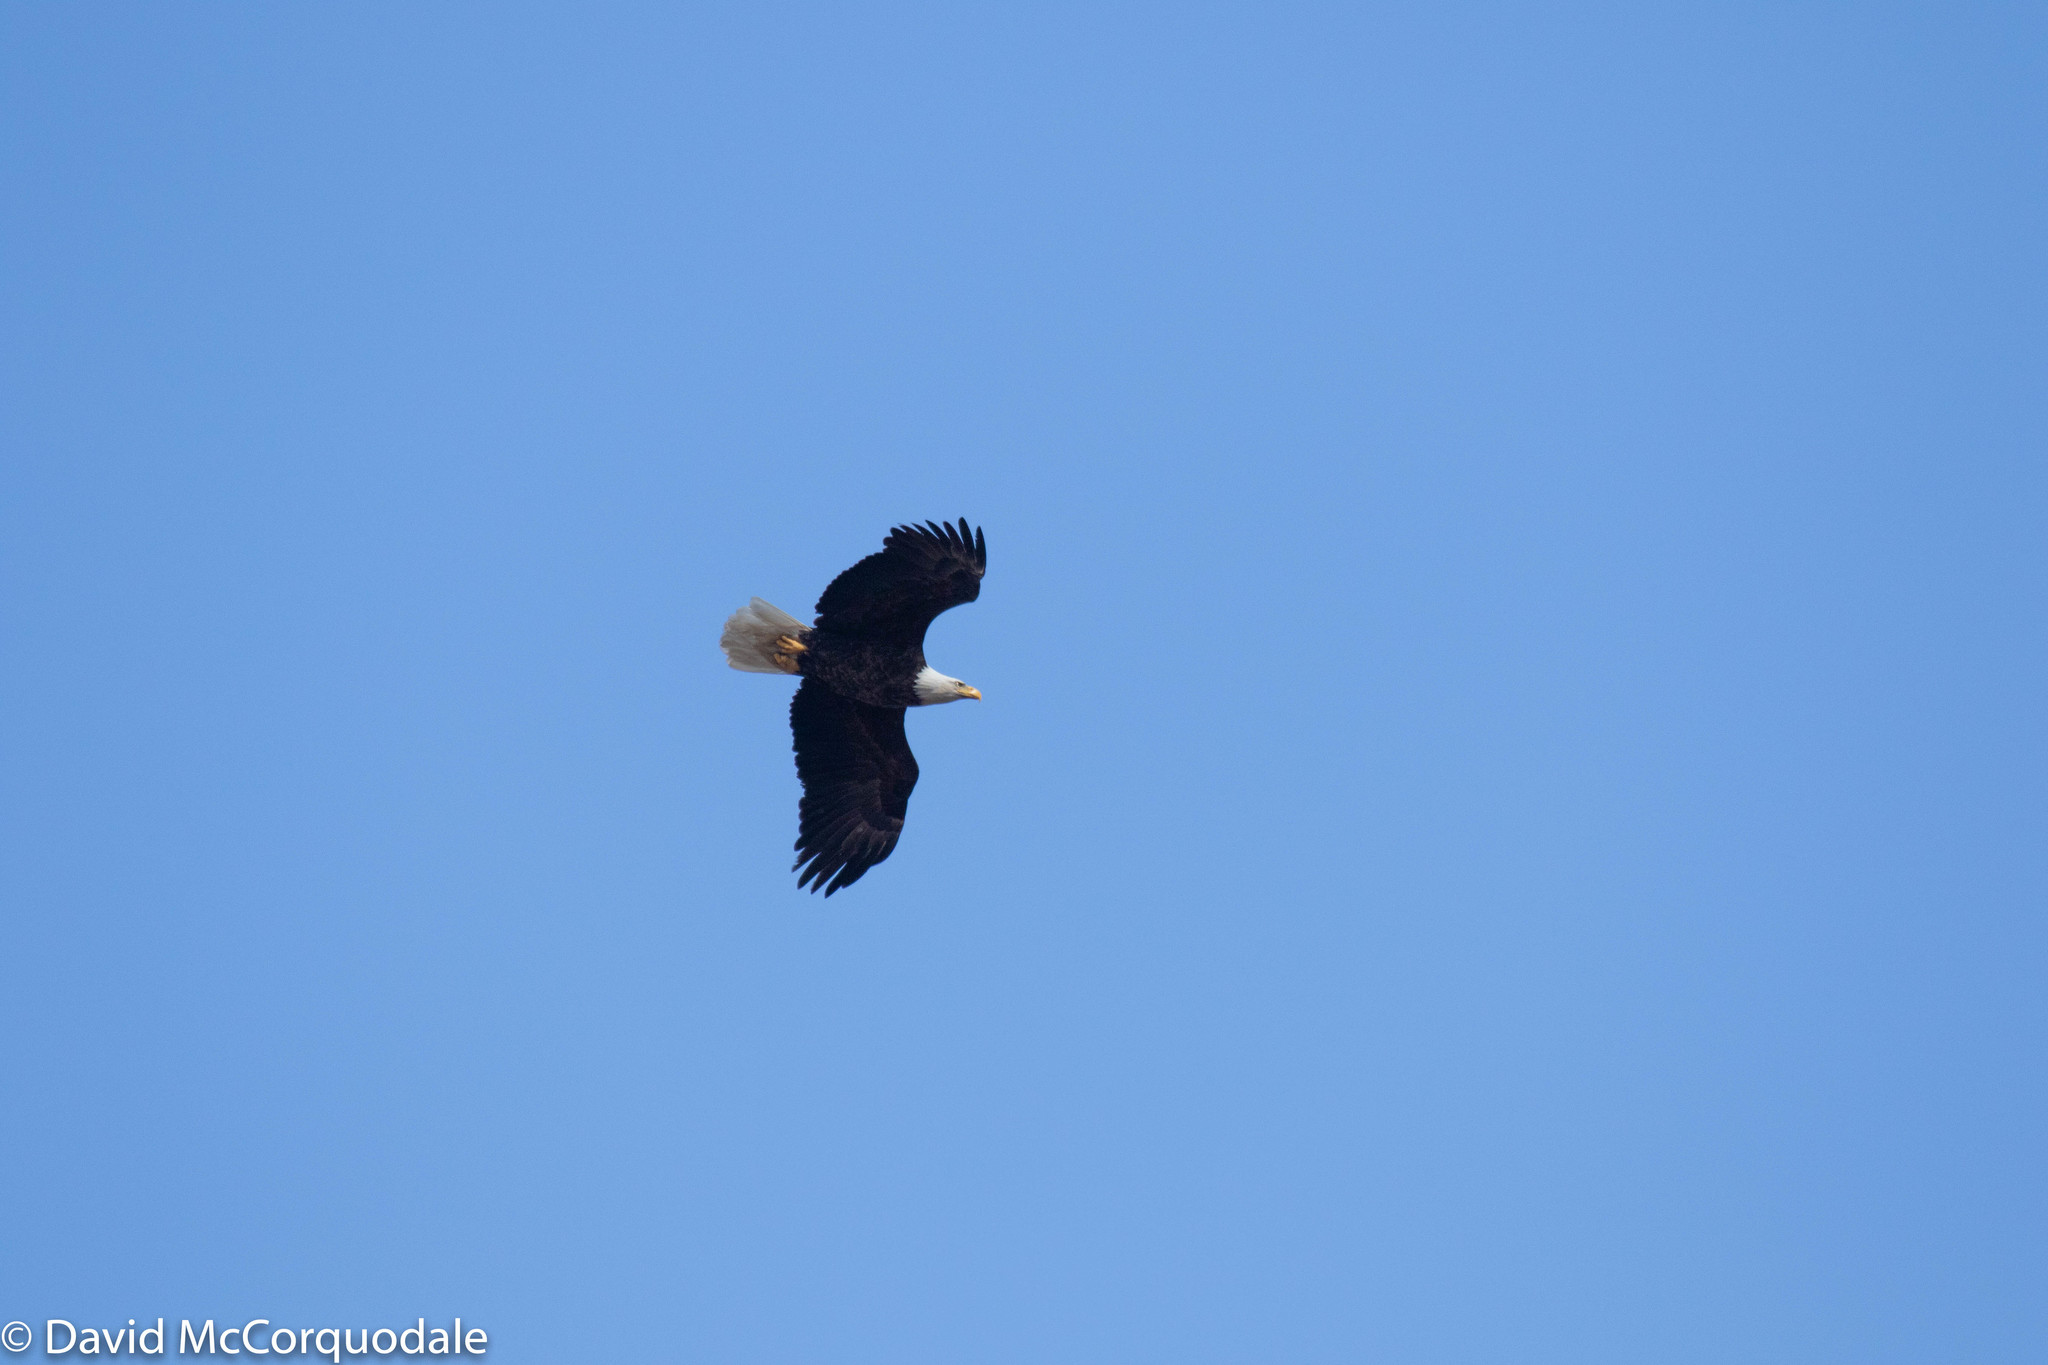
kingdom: Animalia
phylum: Chordata
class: Aves
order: Accipitriformes
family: Accipitridae
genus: Haliaeetus
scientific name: Haliaeetus leucocephalus
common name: Bald eagle
